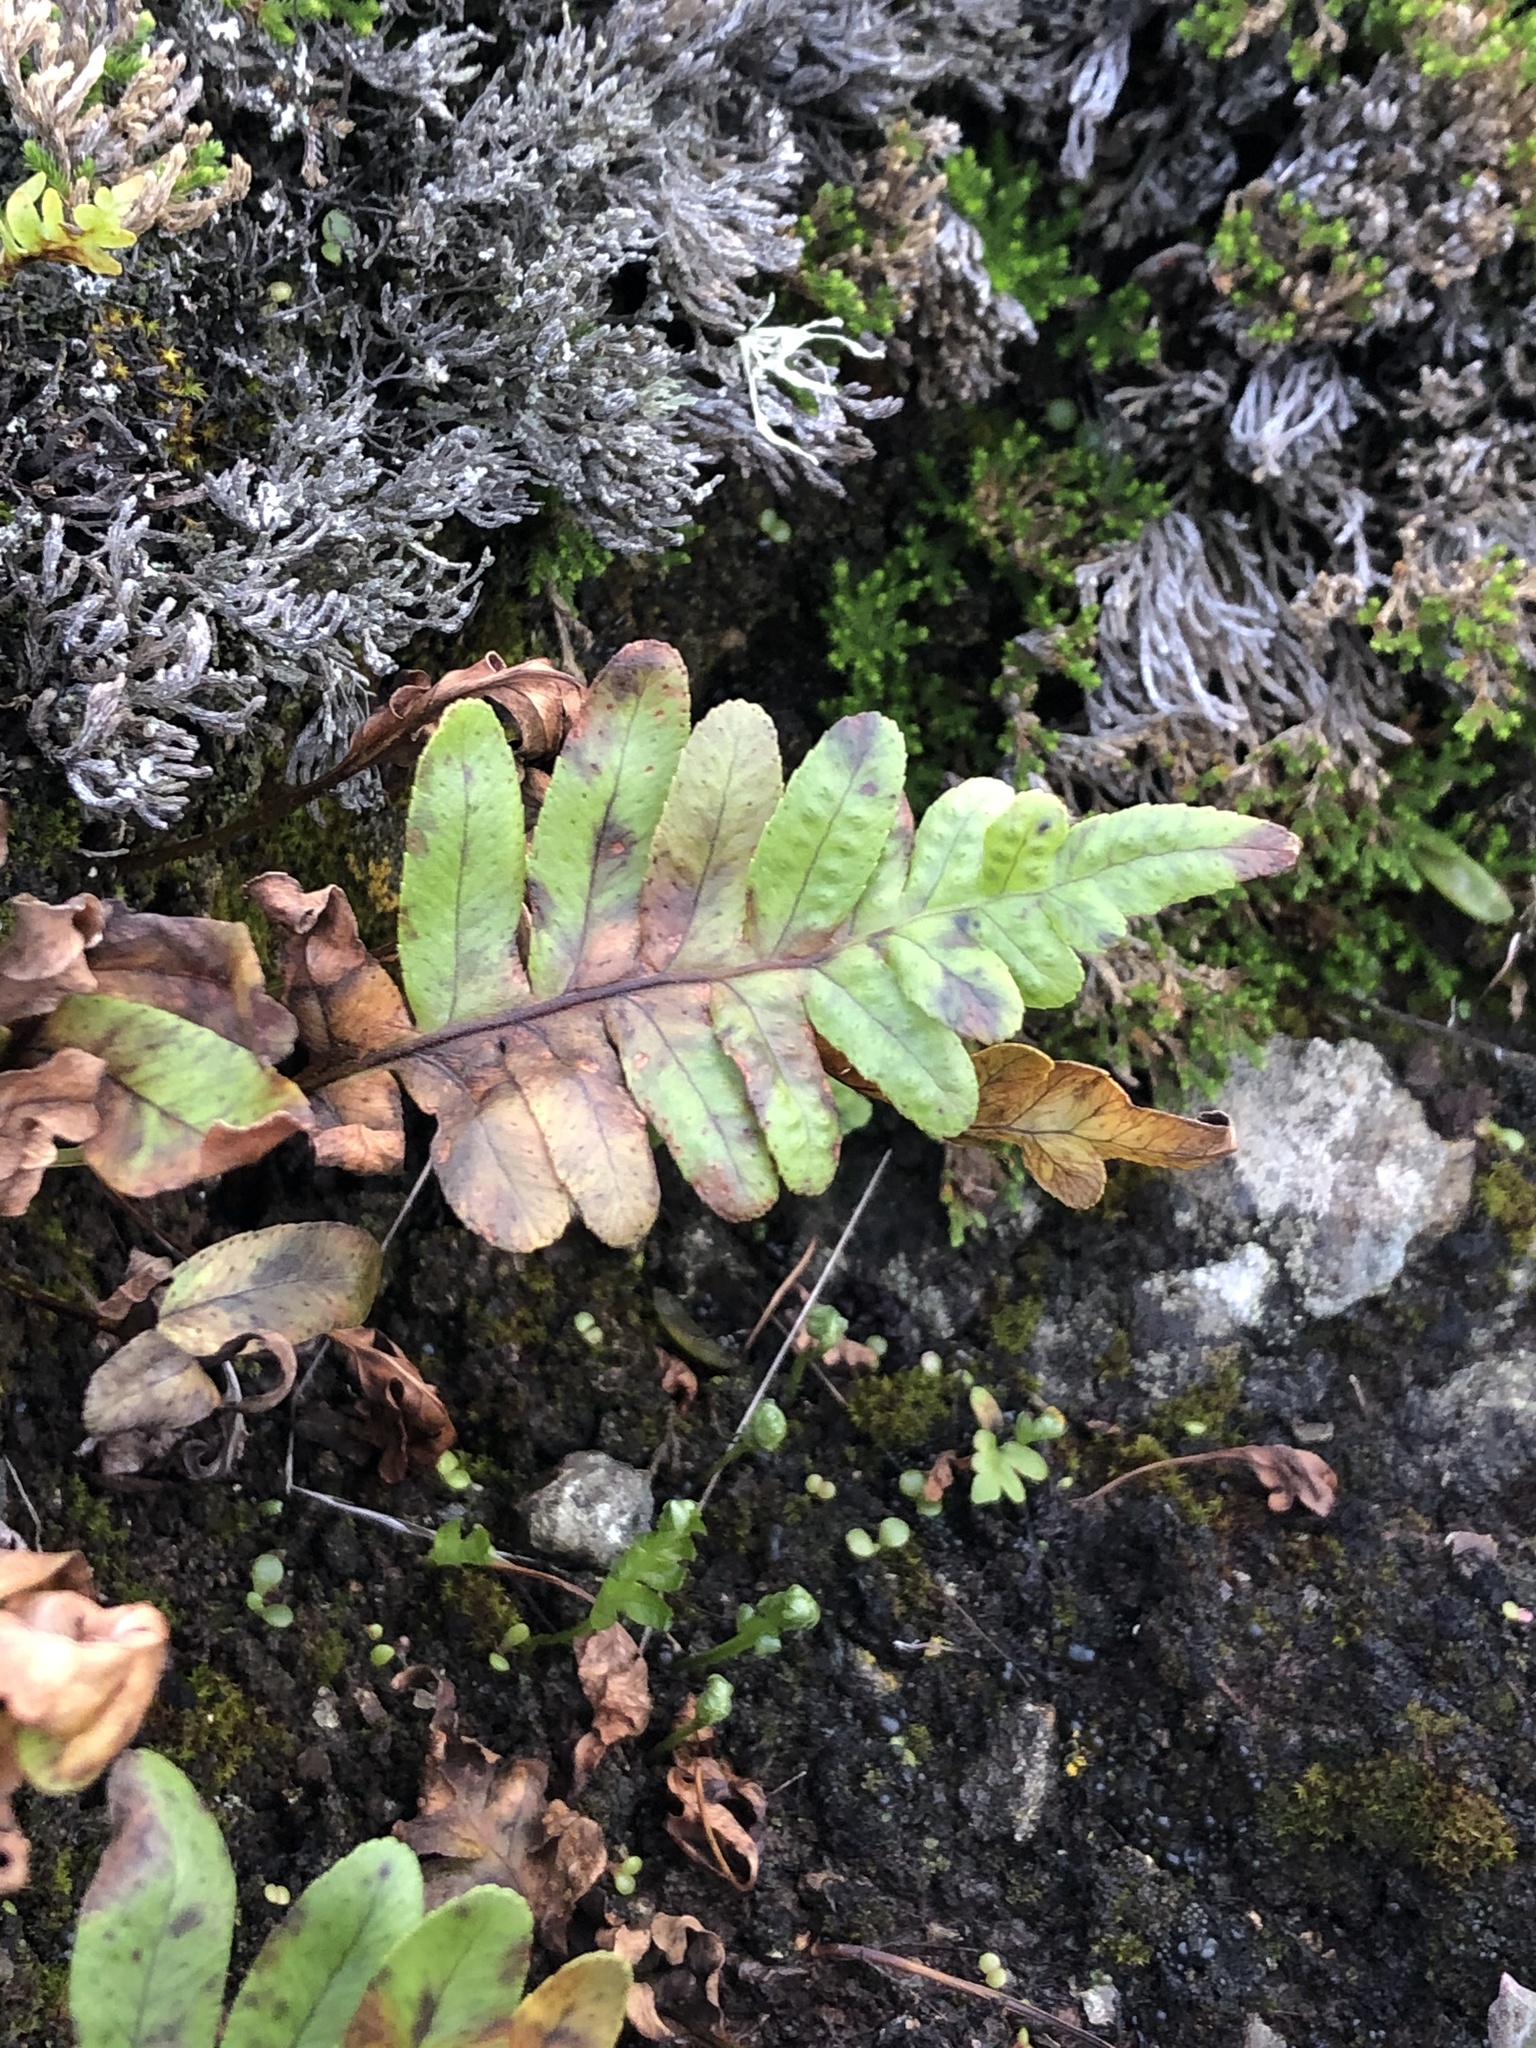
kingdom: Plantae
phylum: Tracheophyta
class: Polypodiopsida
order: Polypodiales
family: Polypodiaceae
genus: Polypodium
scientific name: Polypodium californicum
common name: California polypody
